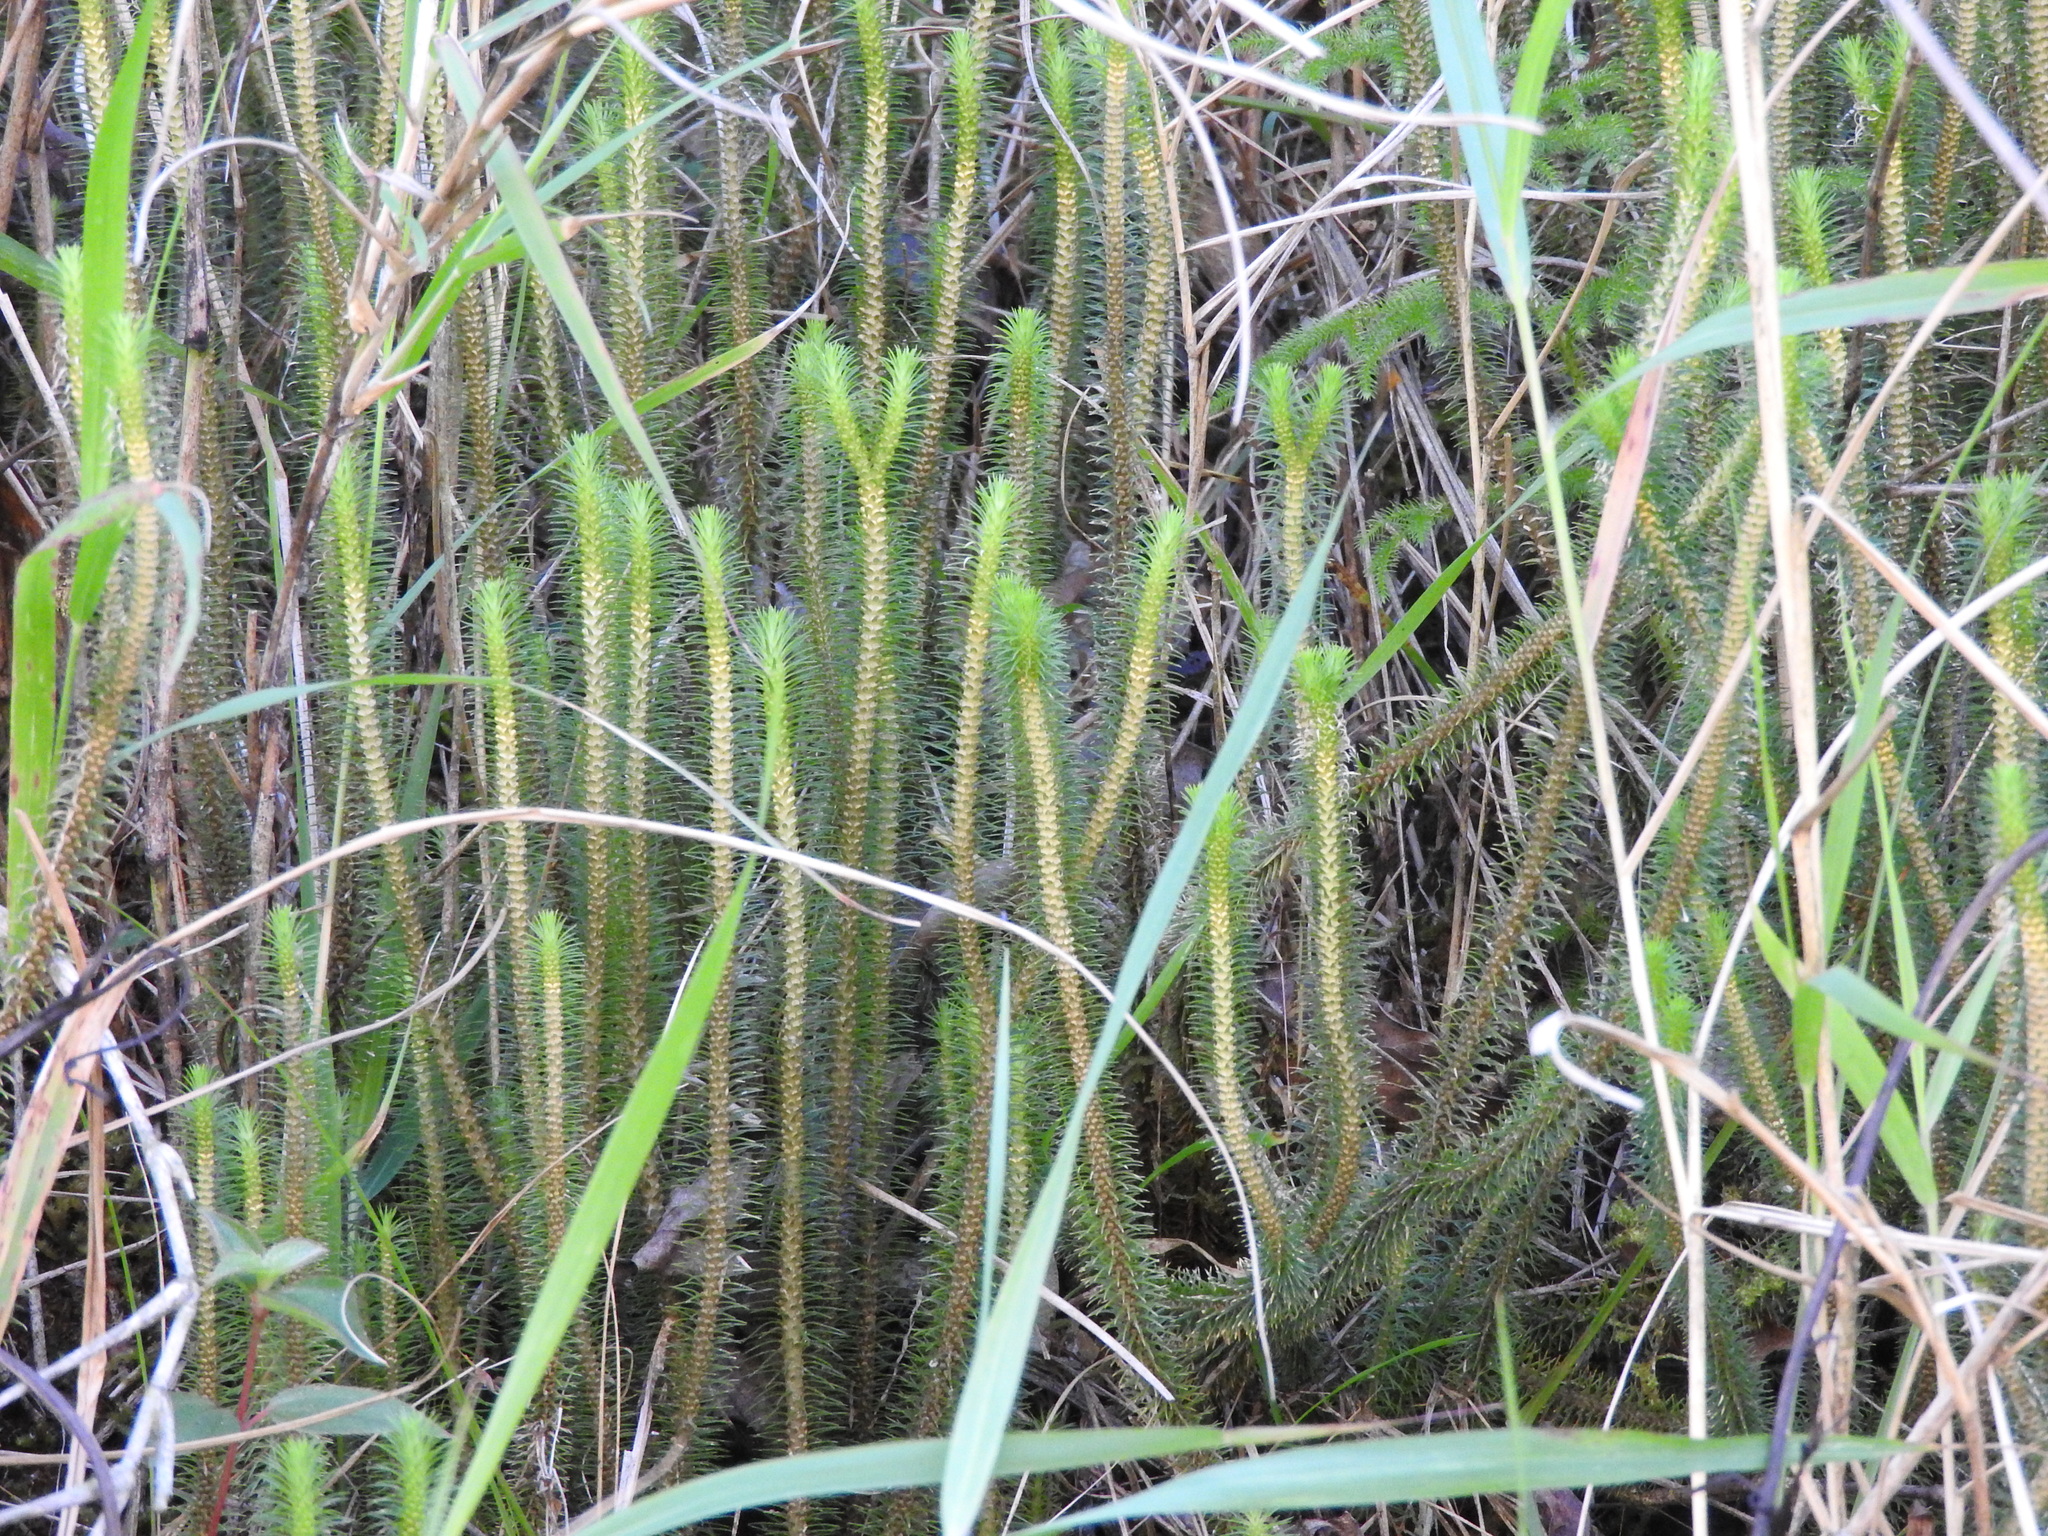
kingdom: Plantae
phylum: Tracheophyta
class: Lycopodiopsida
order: Lycopodiales
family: Lycopodiaceae
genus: Phlegmariurus
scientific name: Phlegmariurus reflexus
